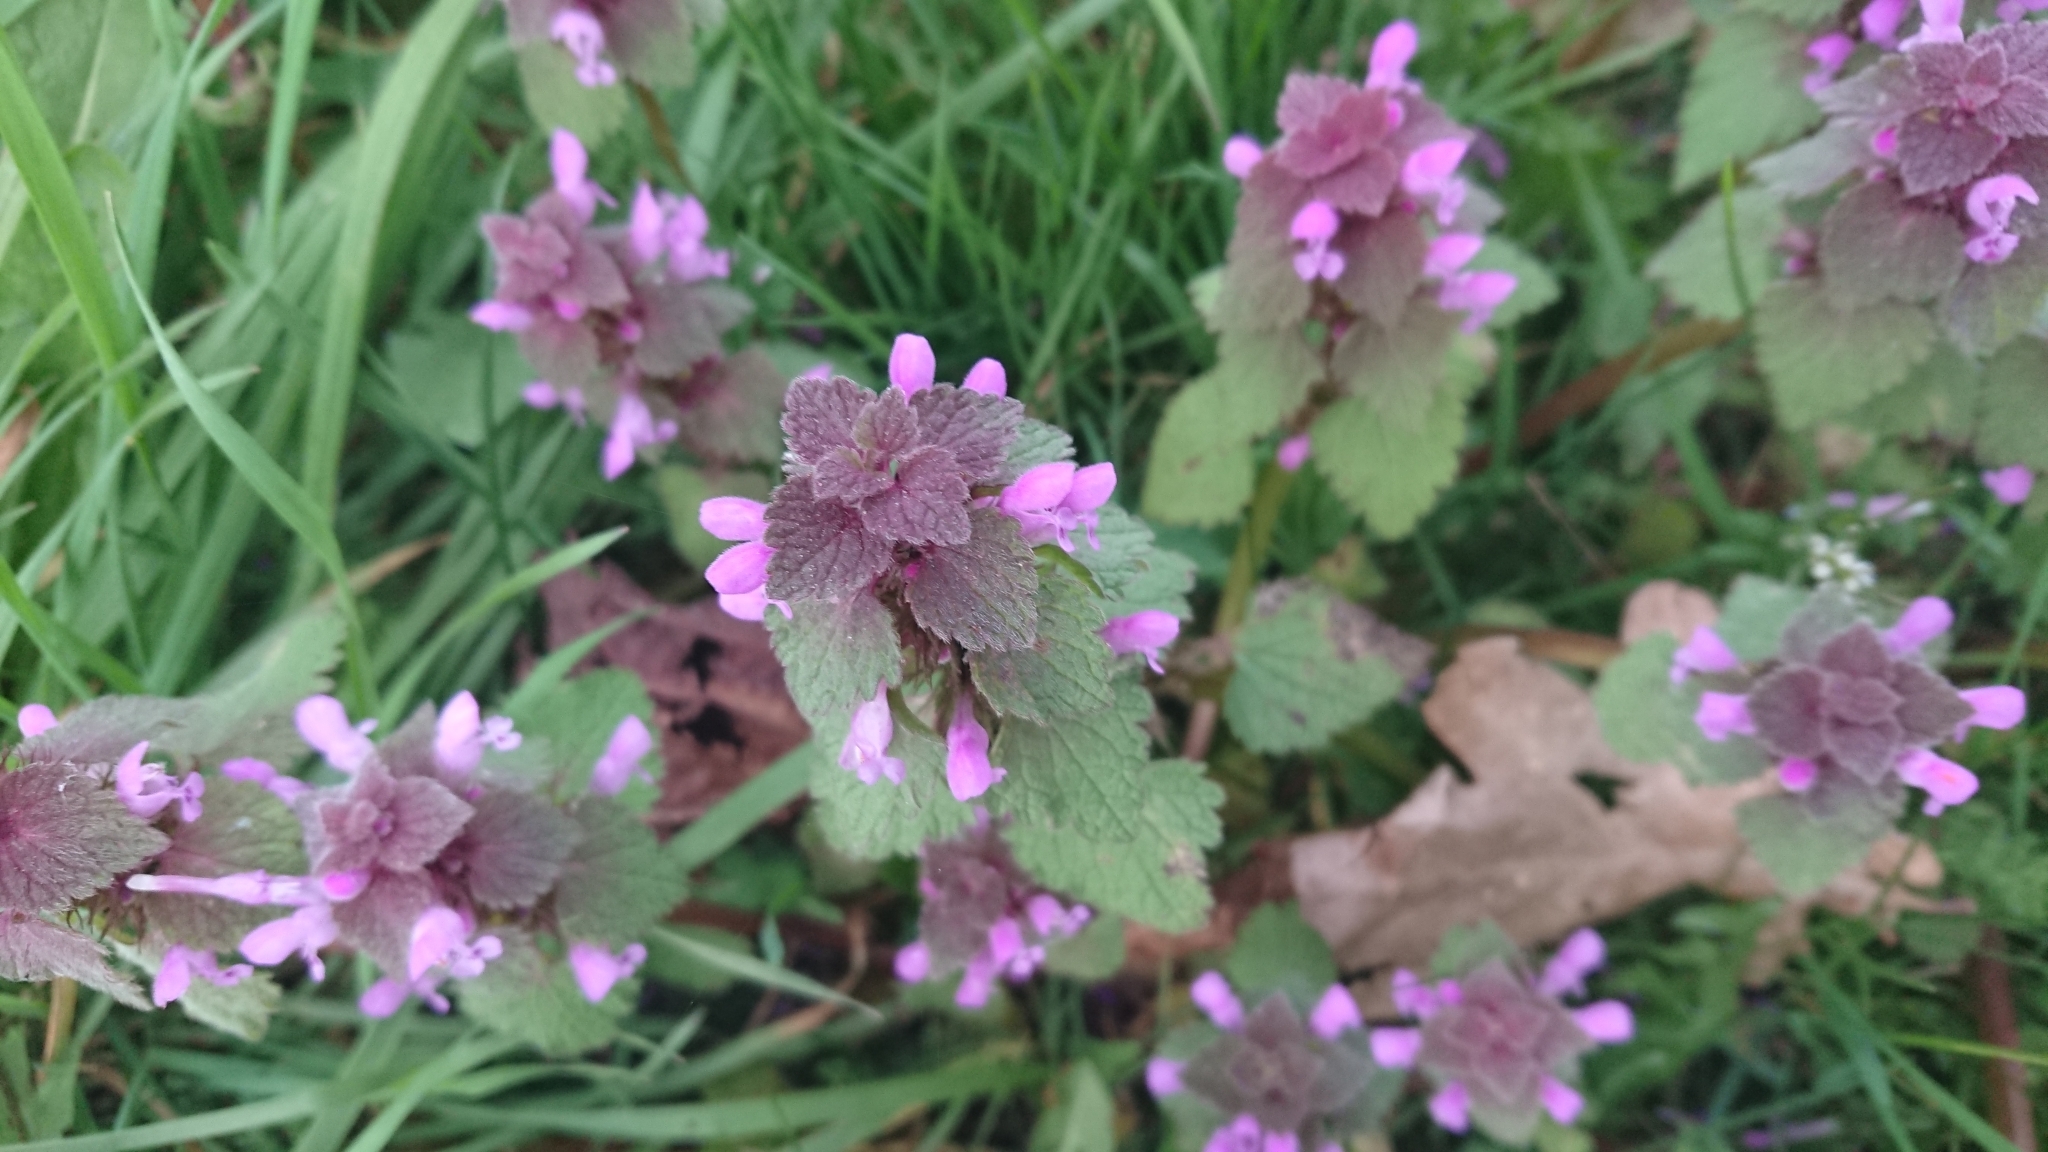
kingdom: Plantae
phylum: Tracheophyta
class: Magnoliopsida
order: Lamiales
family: Lamiaceae
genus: Lamium
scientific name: Lamium purpureum
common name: Red dead-nettle
